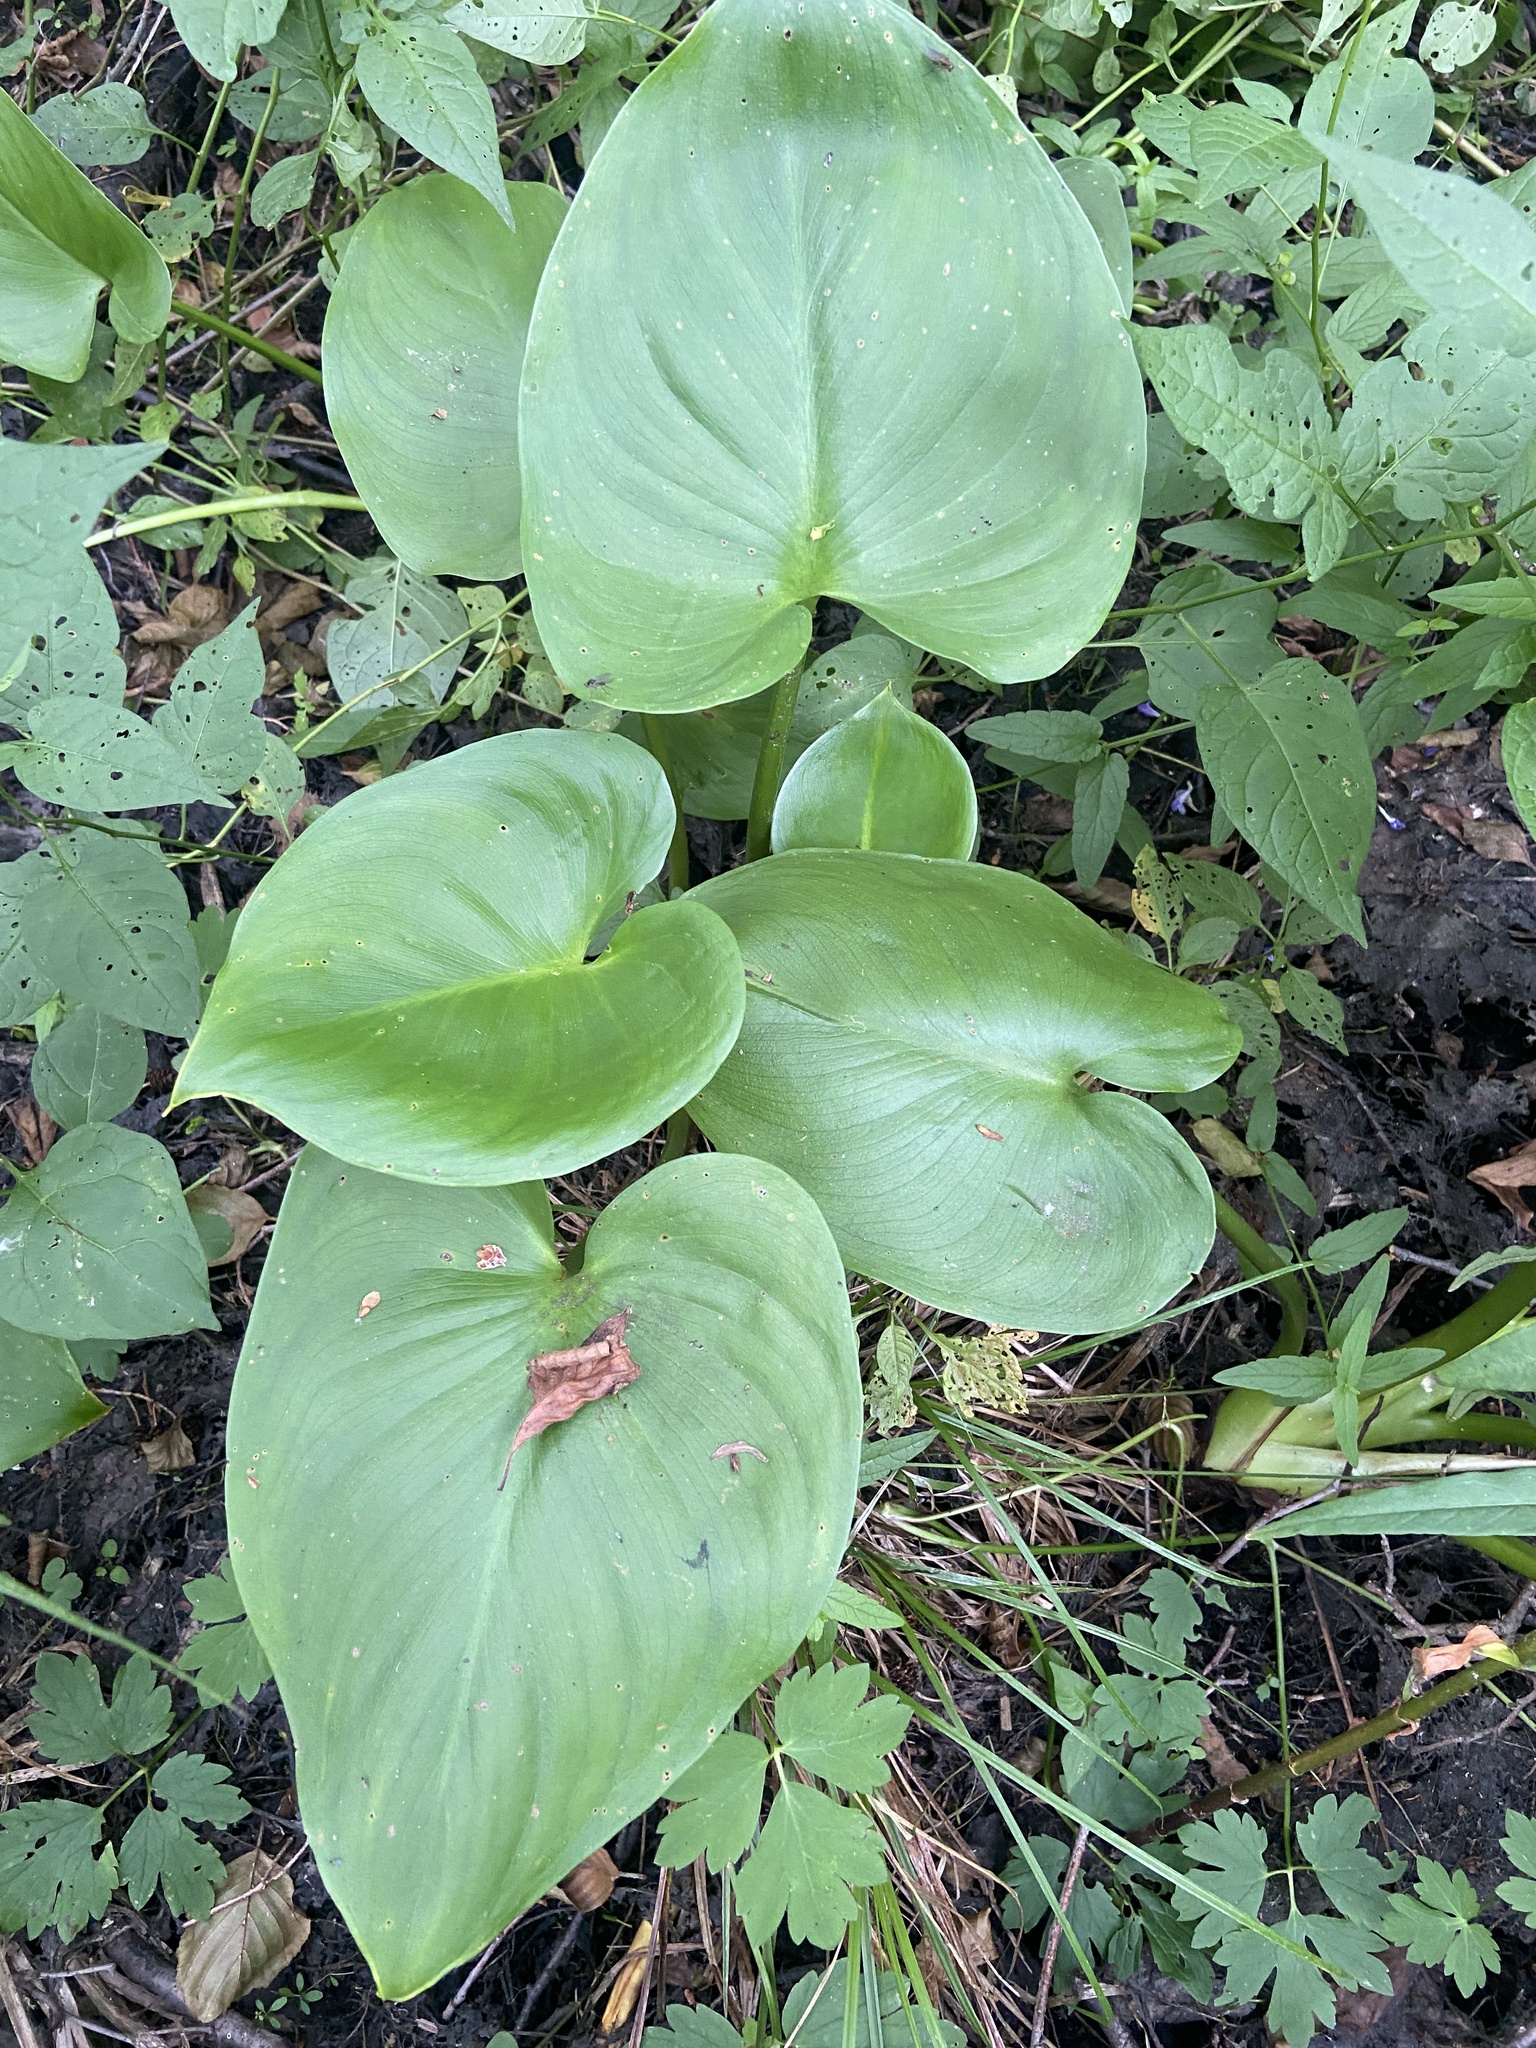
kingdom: Plantae
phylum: Tracheophyta
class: Liliopsida
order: Alismatales
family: Araceae
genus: Calla
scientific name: Calla palustris
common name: Bog arum
